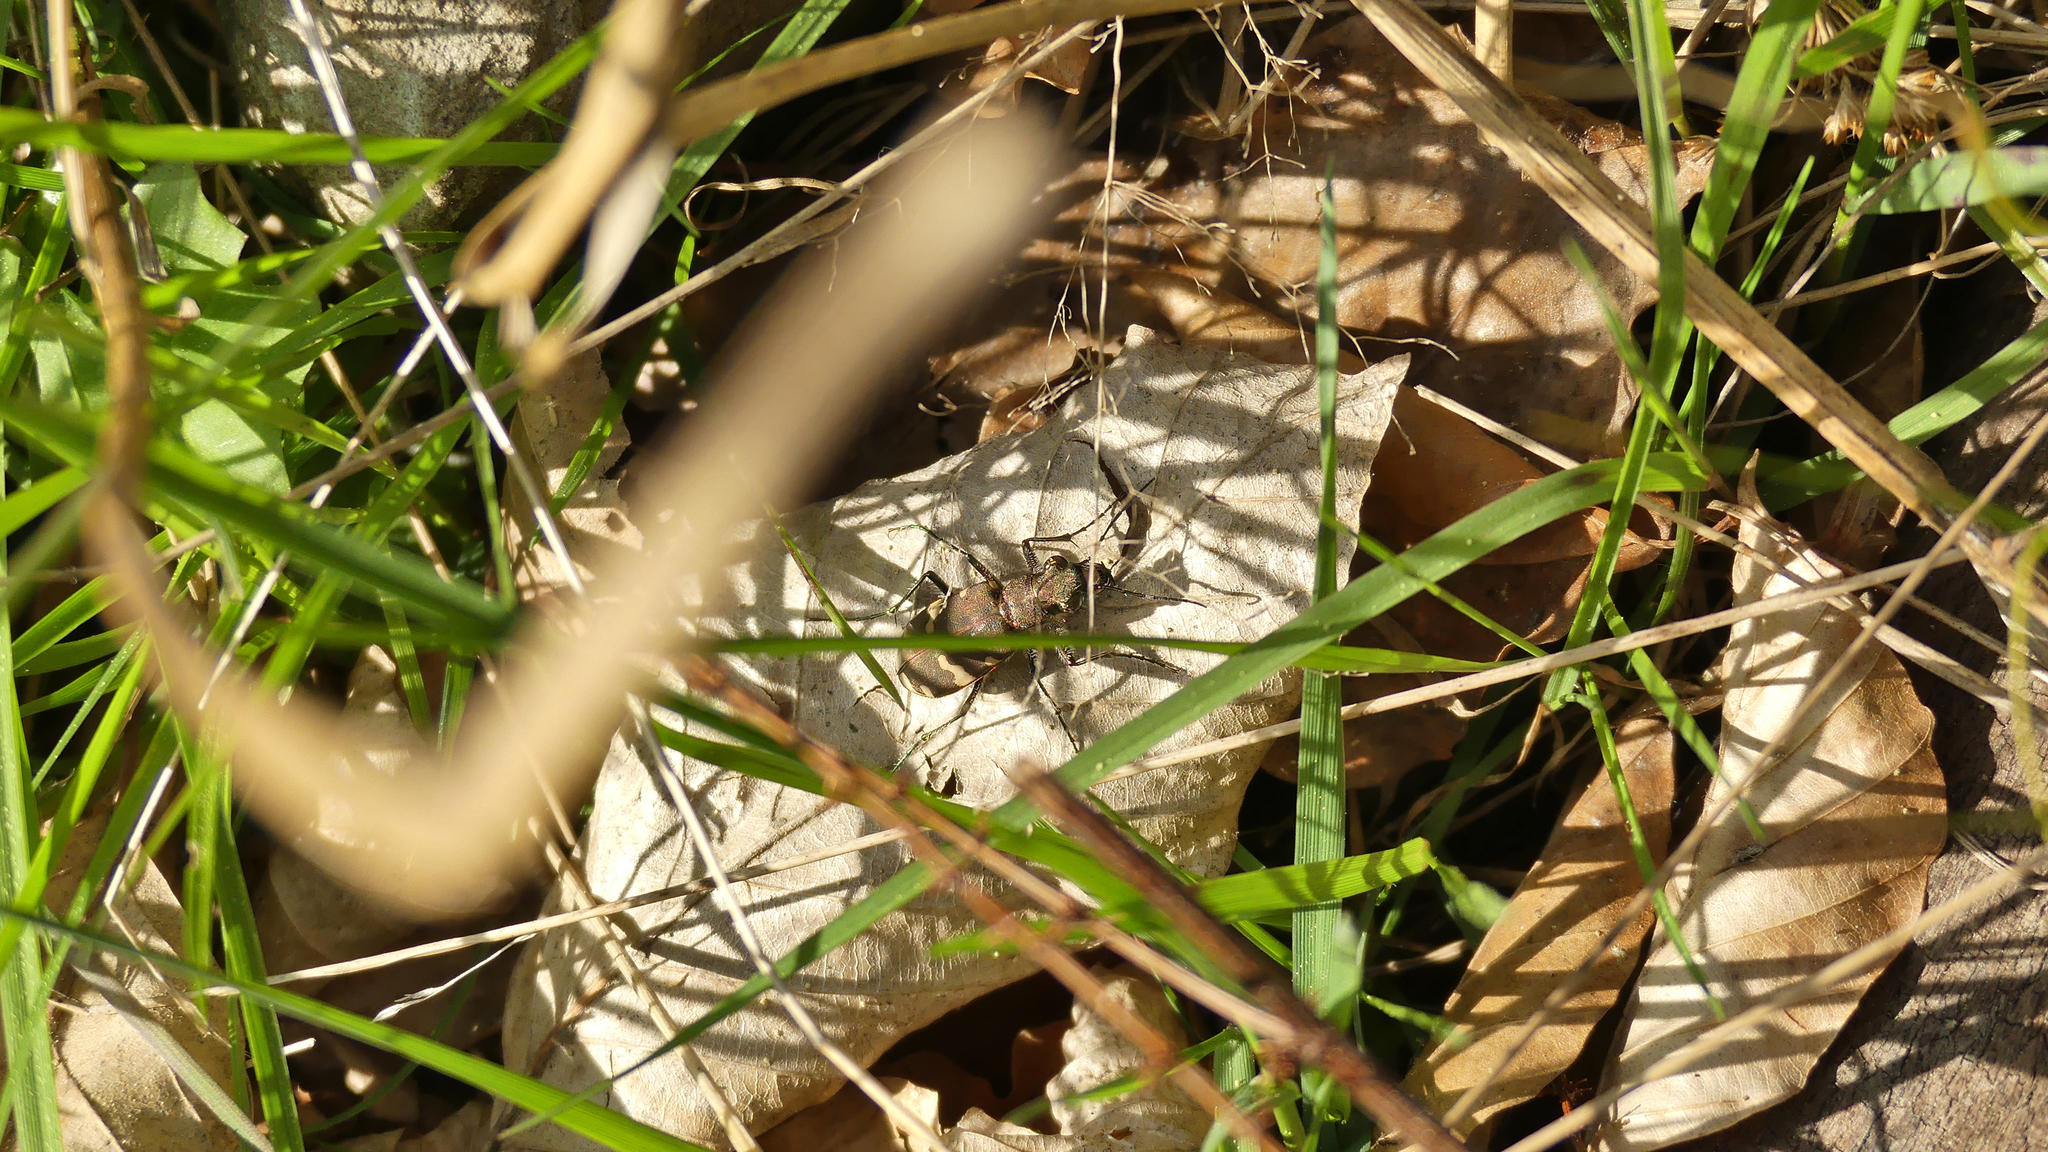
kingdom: Animalia
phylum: Arthropoda
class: Insecta
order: Coleoptera
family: Carabidae
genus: Cicindela
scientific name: Cicindela sylvicola
